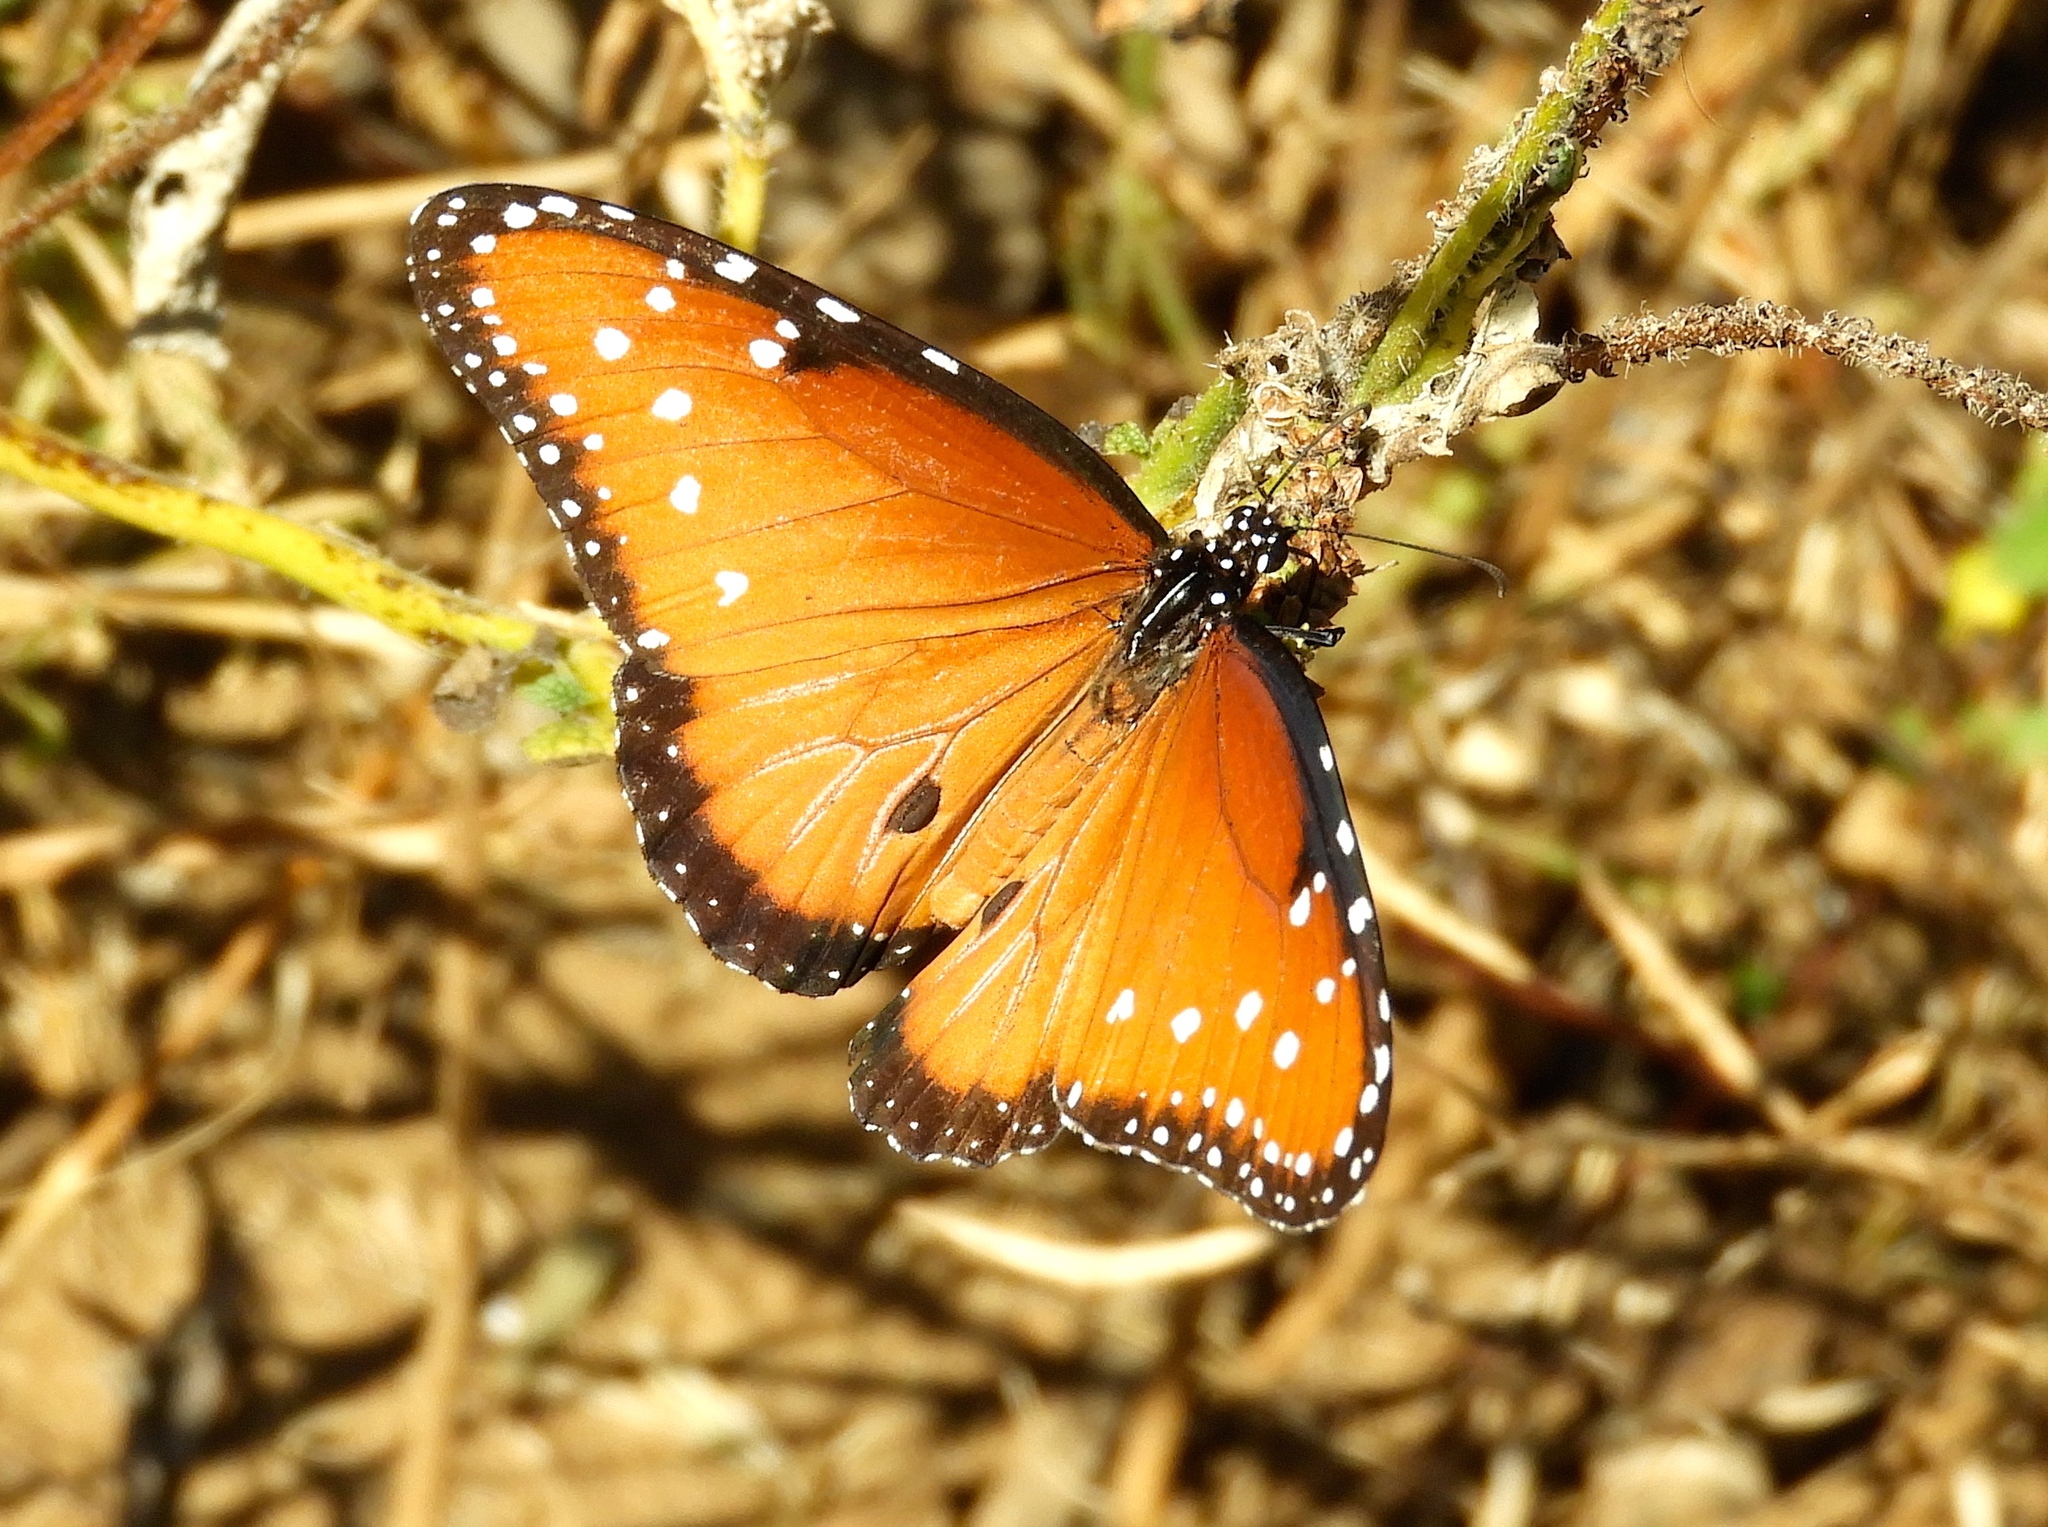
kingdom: Animalia
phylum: Arthropoda
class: Insecta
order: Lepidoptera
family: Nymphalidae
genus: Danaus
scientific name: Danaus gilippus
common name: Queen
